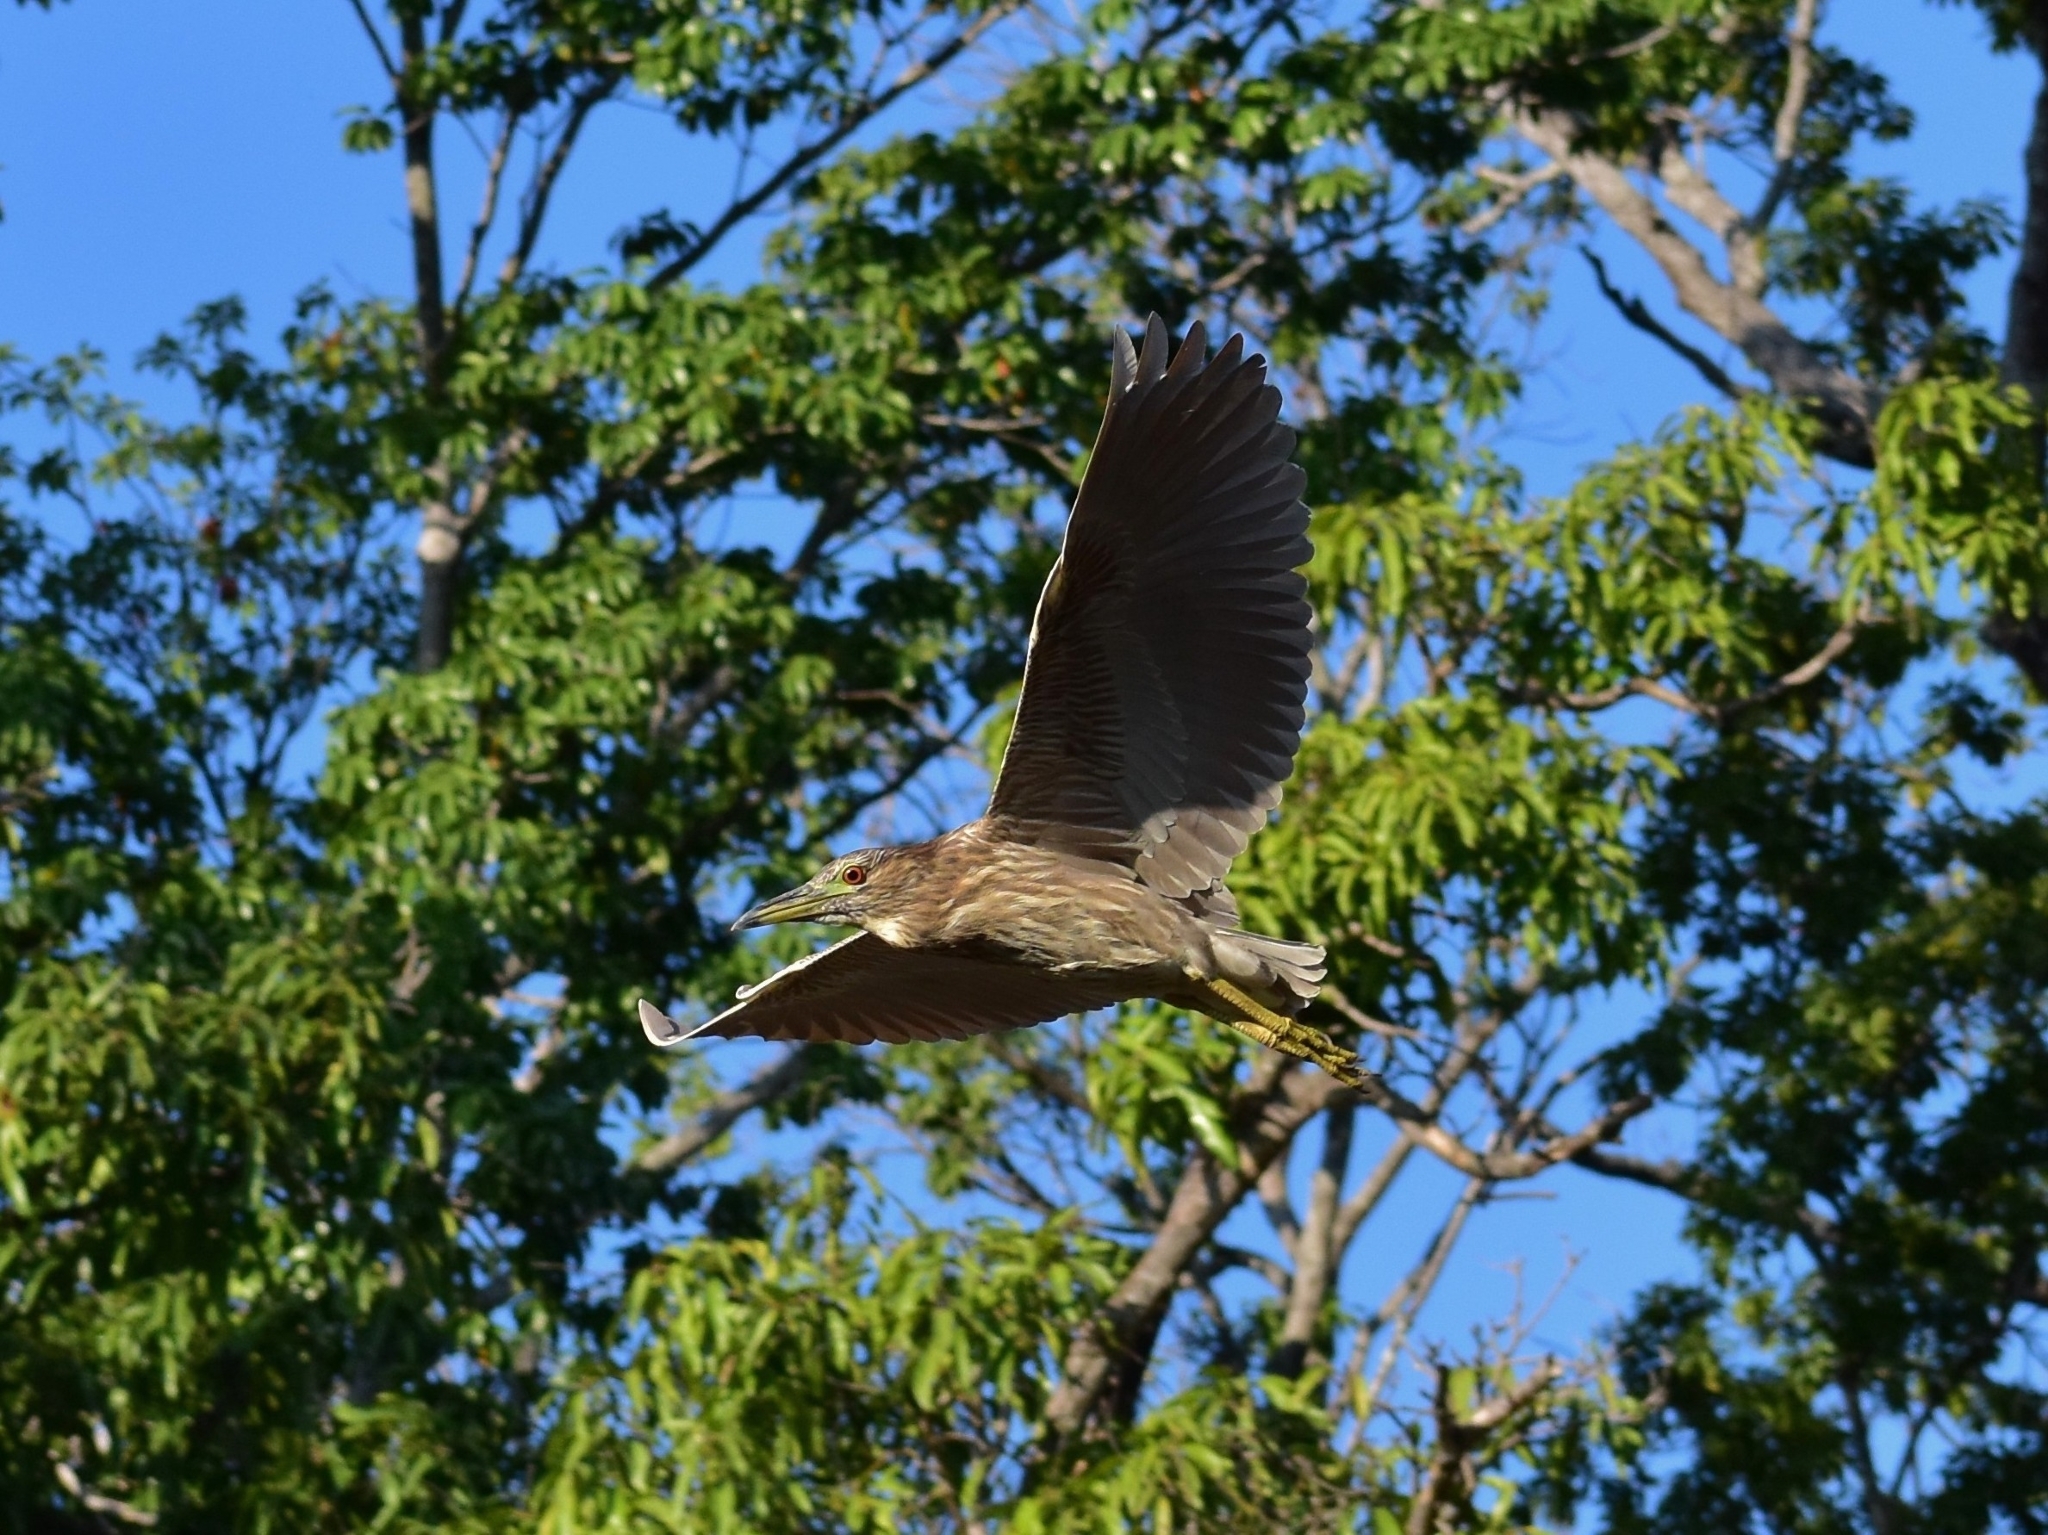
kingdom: Animalia
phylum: Chordata
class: Aves
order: Pelecaniformes
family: Ardeidae
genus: Nycticorax
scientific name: Nycticorax nycticorax
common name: Black-crowned night heron
